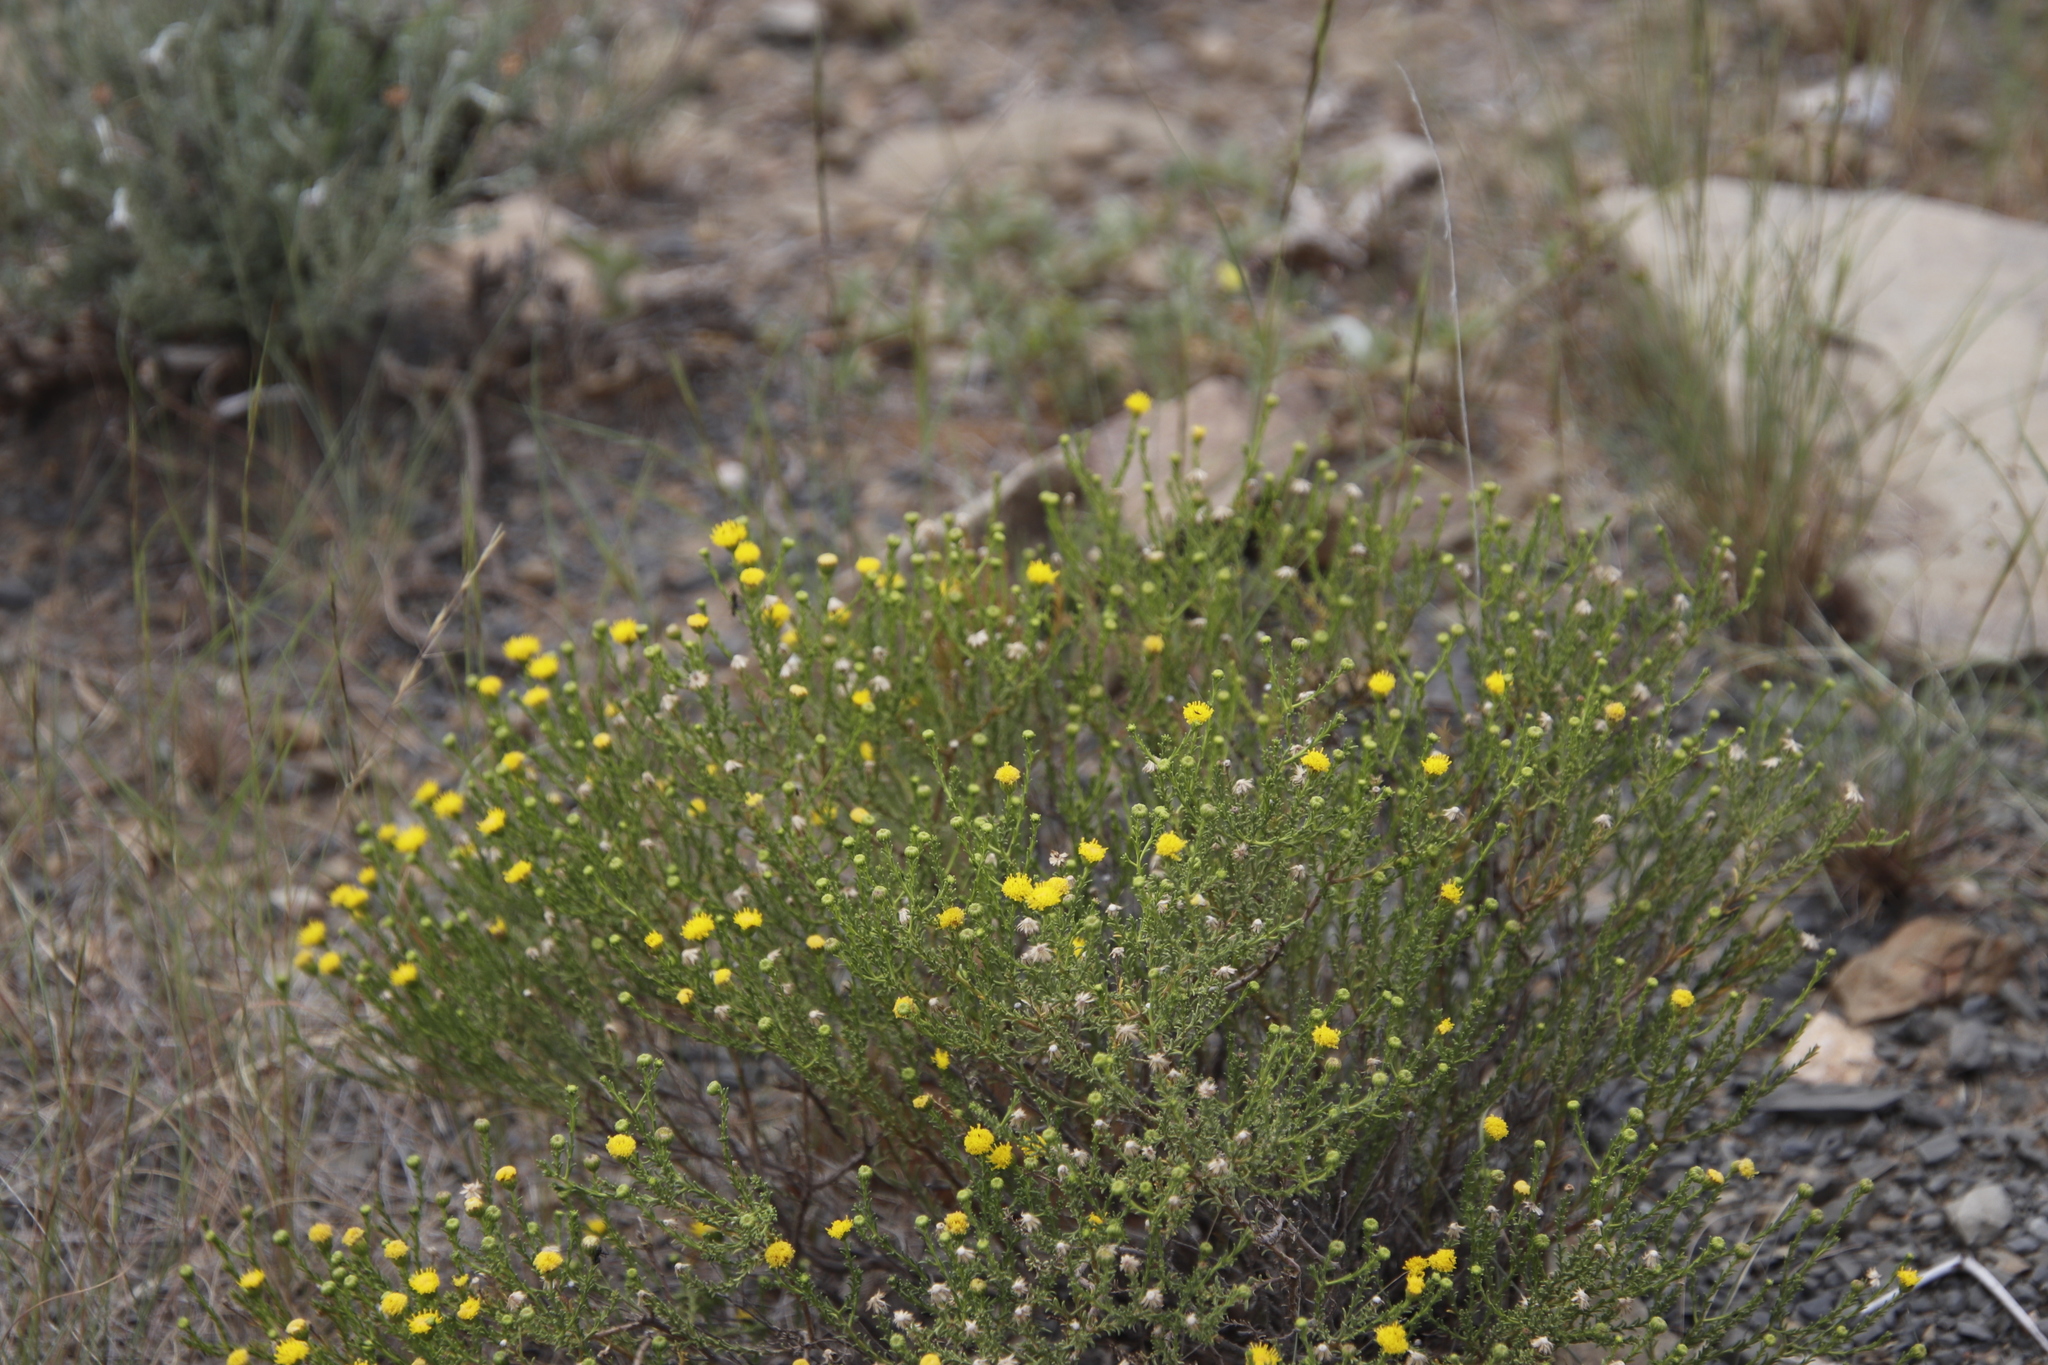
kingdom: Plantae
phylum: Tracheophyta
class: Magnoliopsida
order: Asterales
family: Asteraceae
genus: Chrysocoma
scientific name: Chrysocoma ciliata
